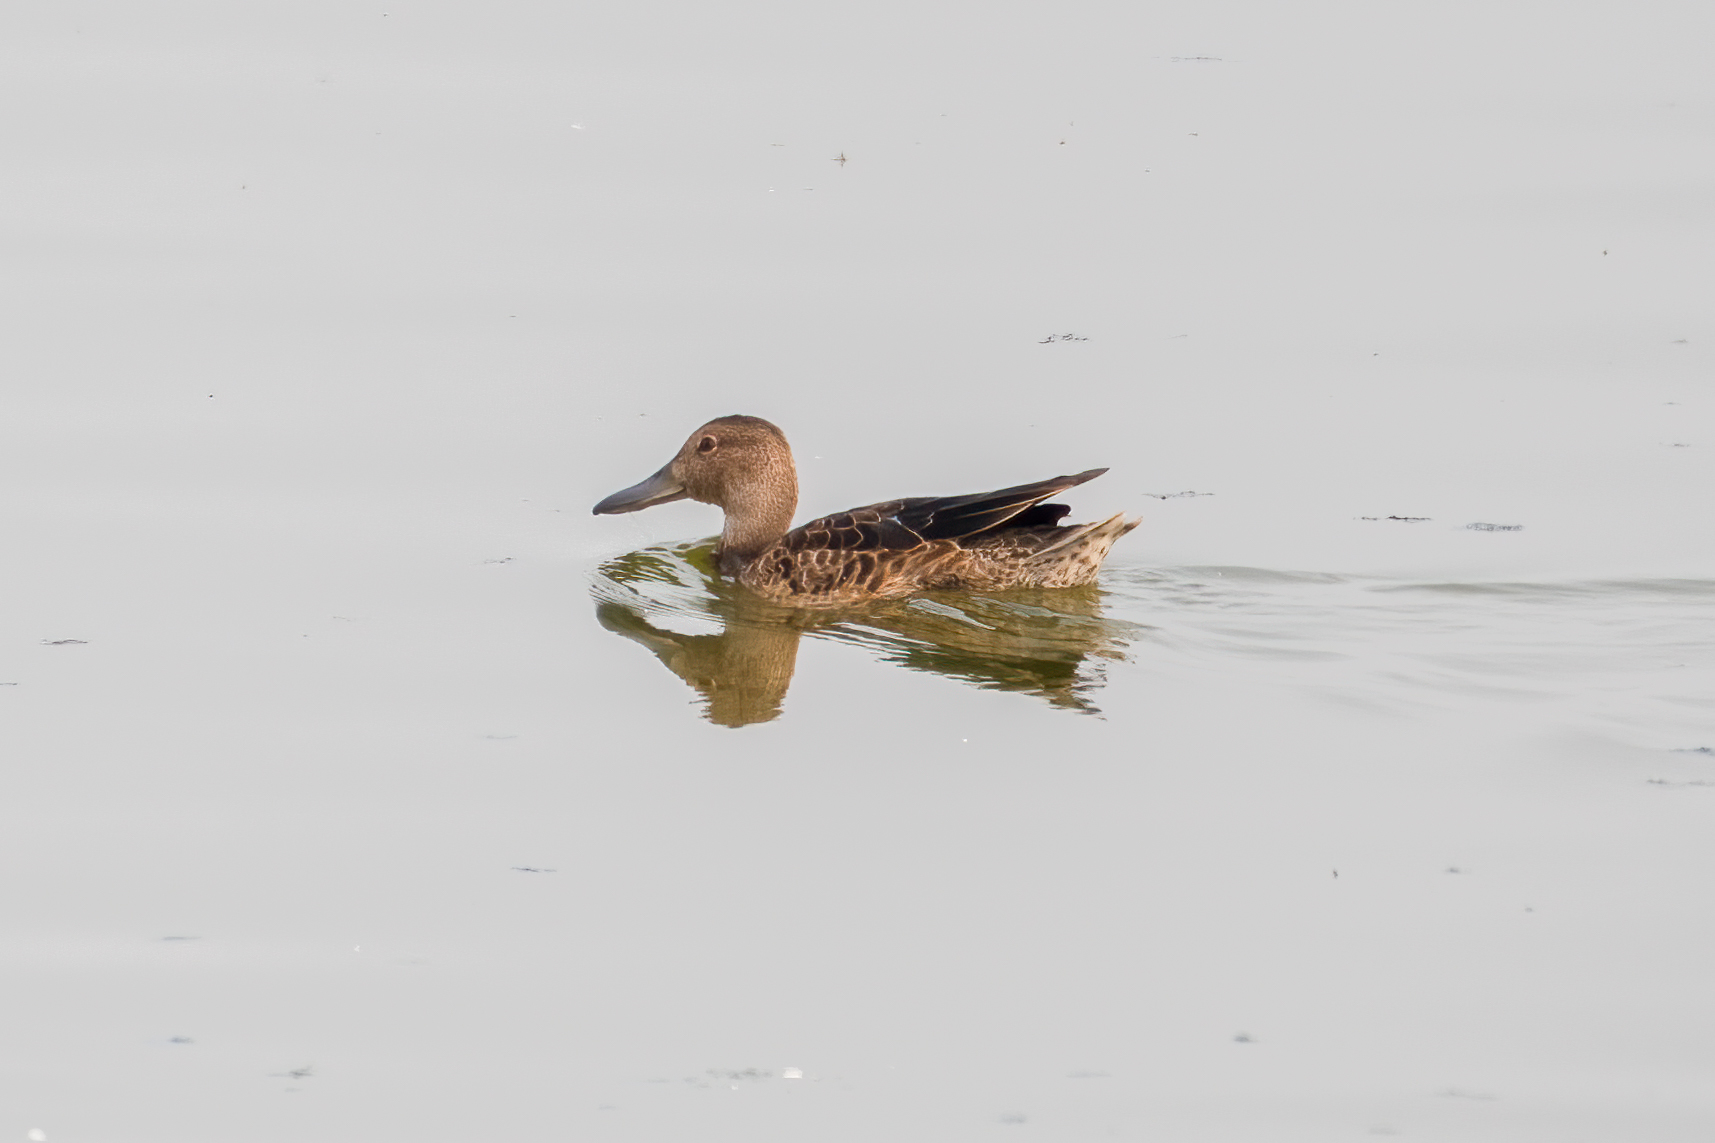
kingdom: Animalia
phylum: Chordata
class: Aves
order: Anseriformes
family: Anatidae
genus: Spatula
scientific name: Spatula cyanoptera
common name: Cinnamon teal
